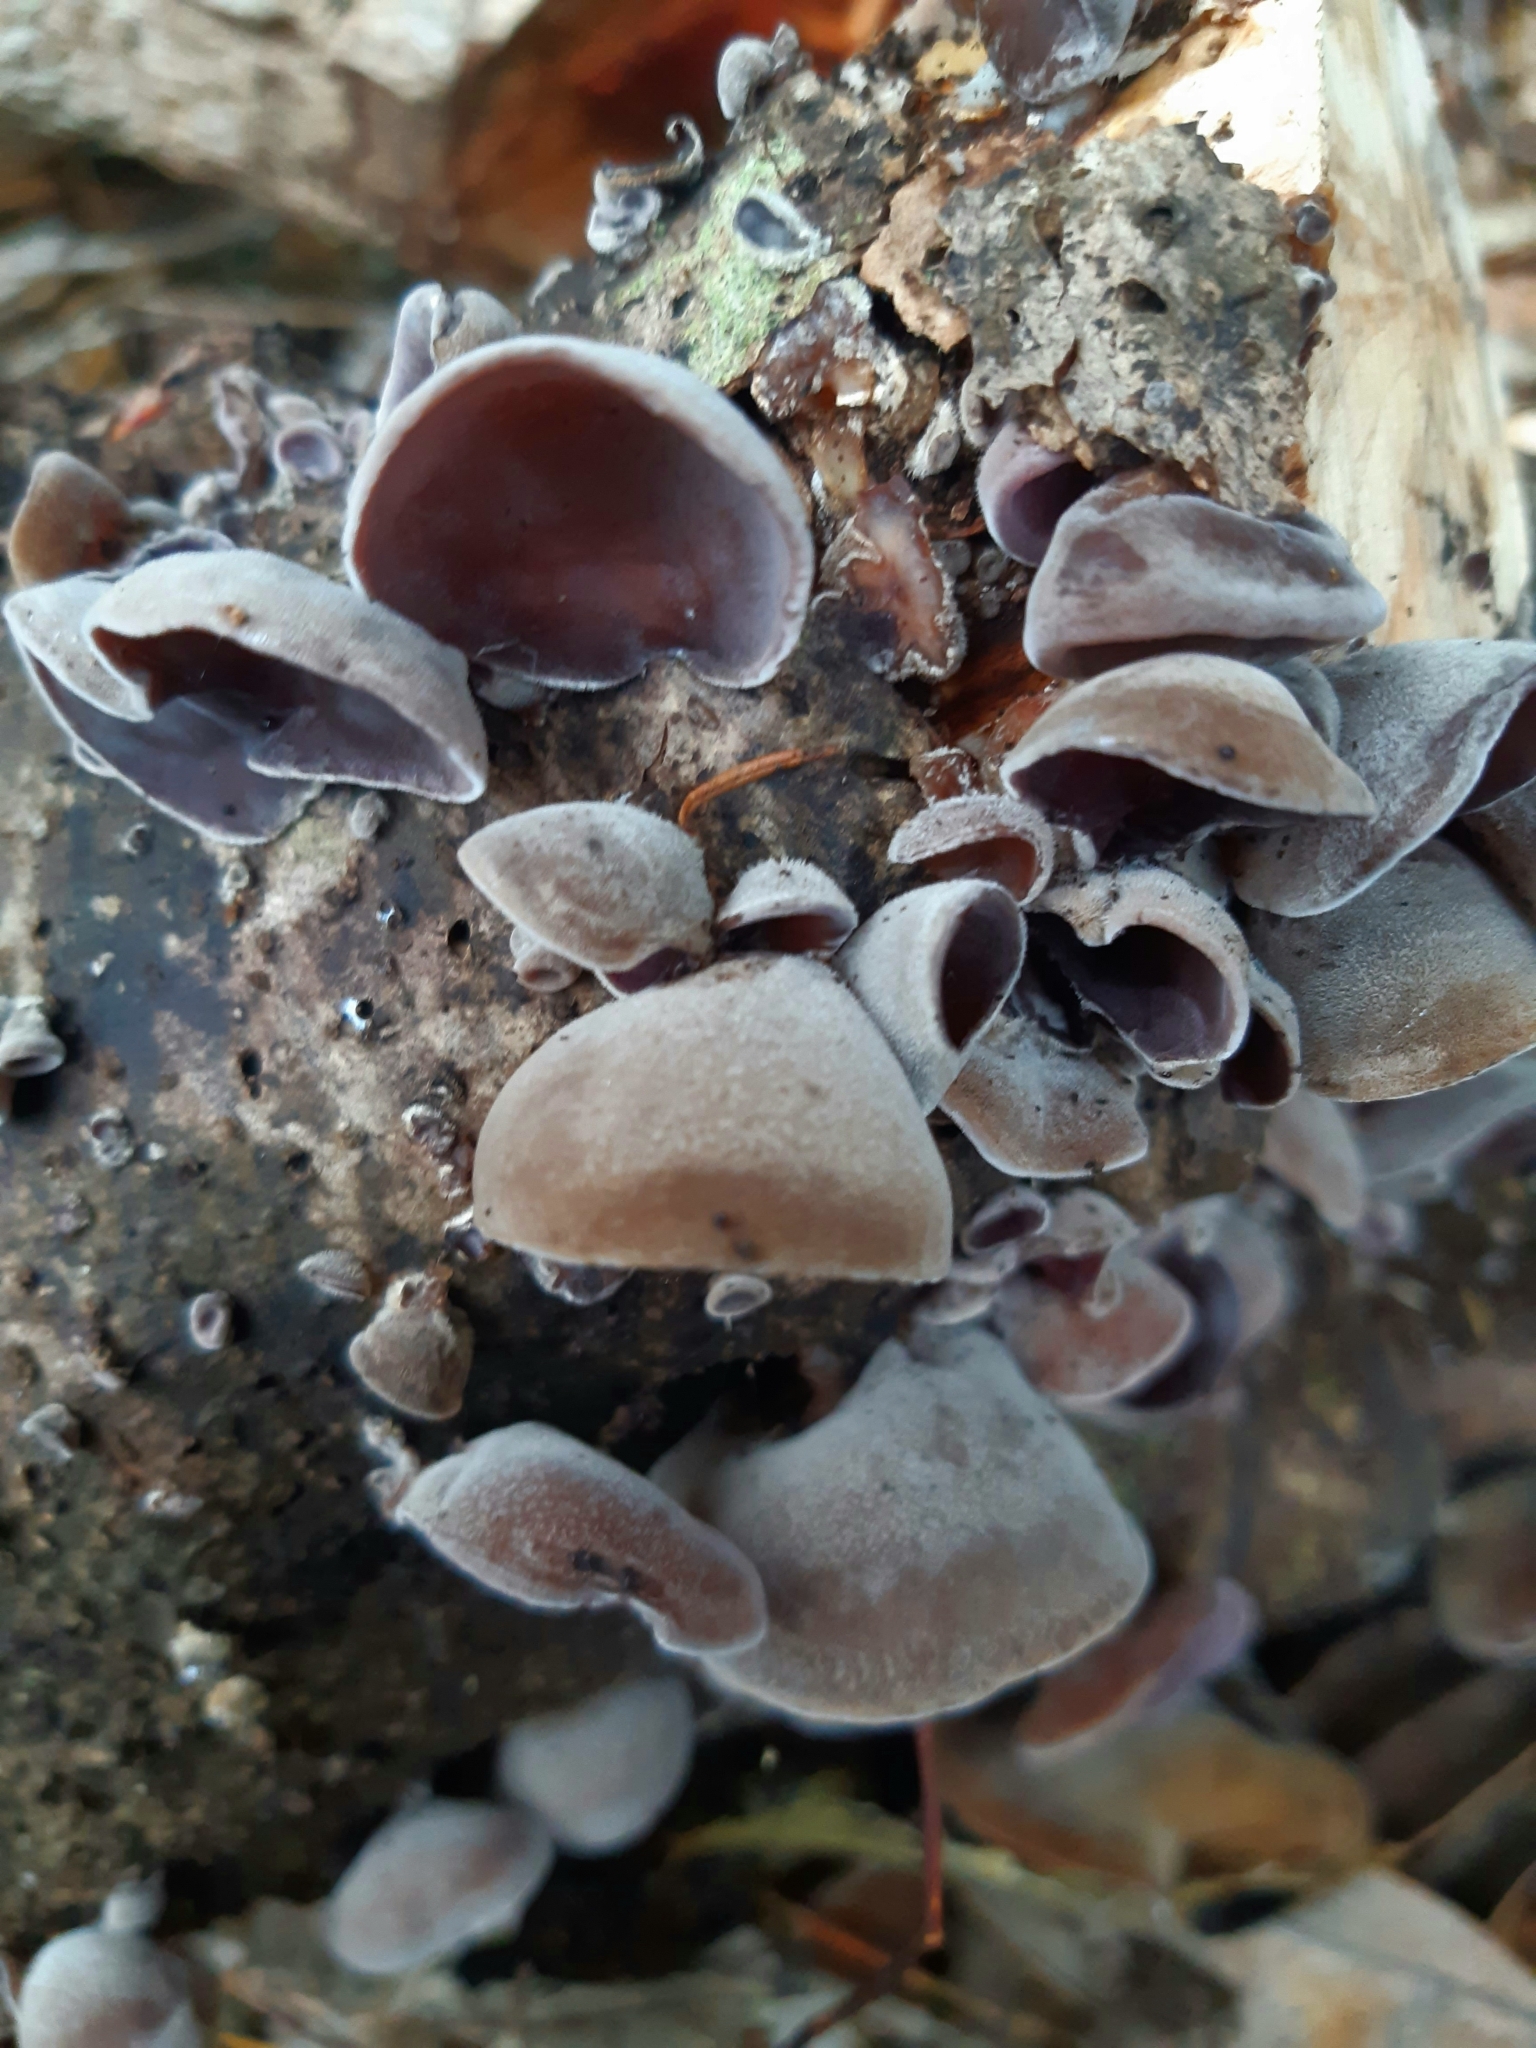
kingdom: Fungi
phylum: Basidiomycota
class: Agaricomycetes
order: Auriculariales
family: Auriculariaceae
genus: Auricularia
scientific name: Auricularia cornea
